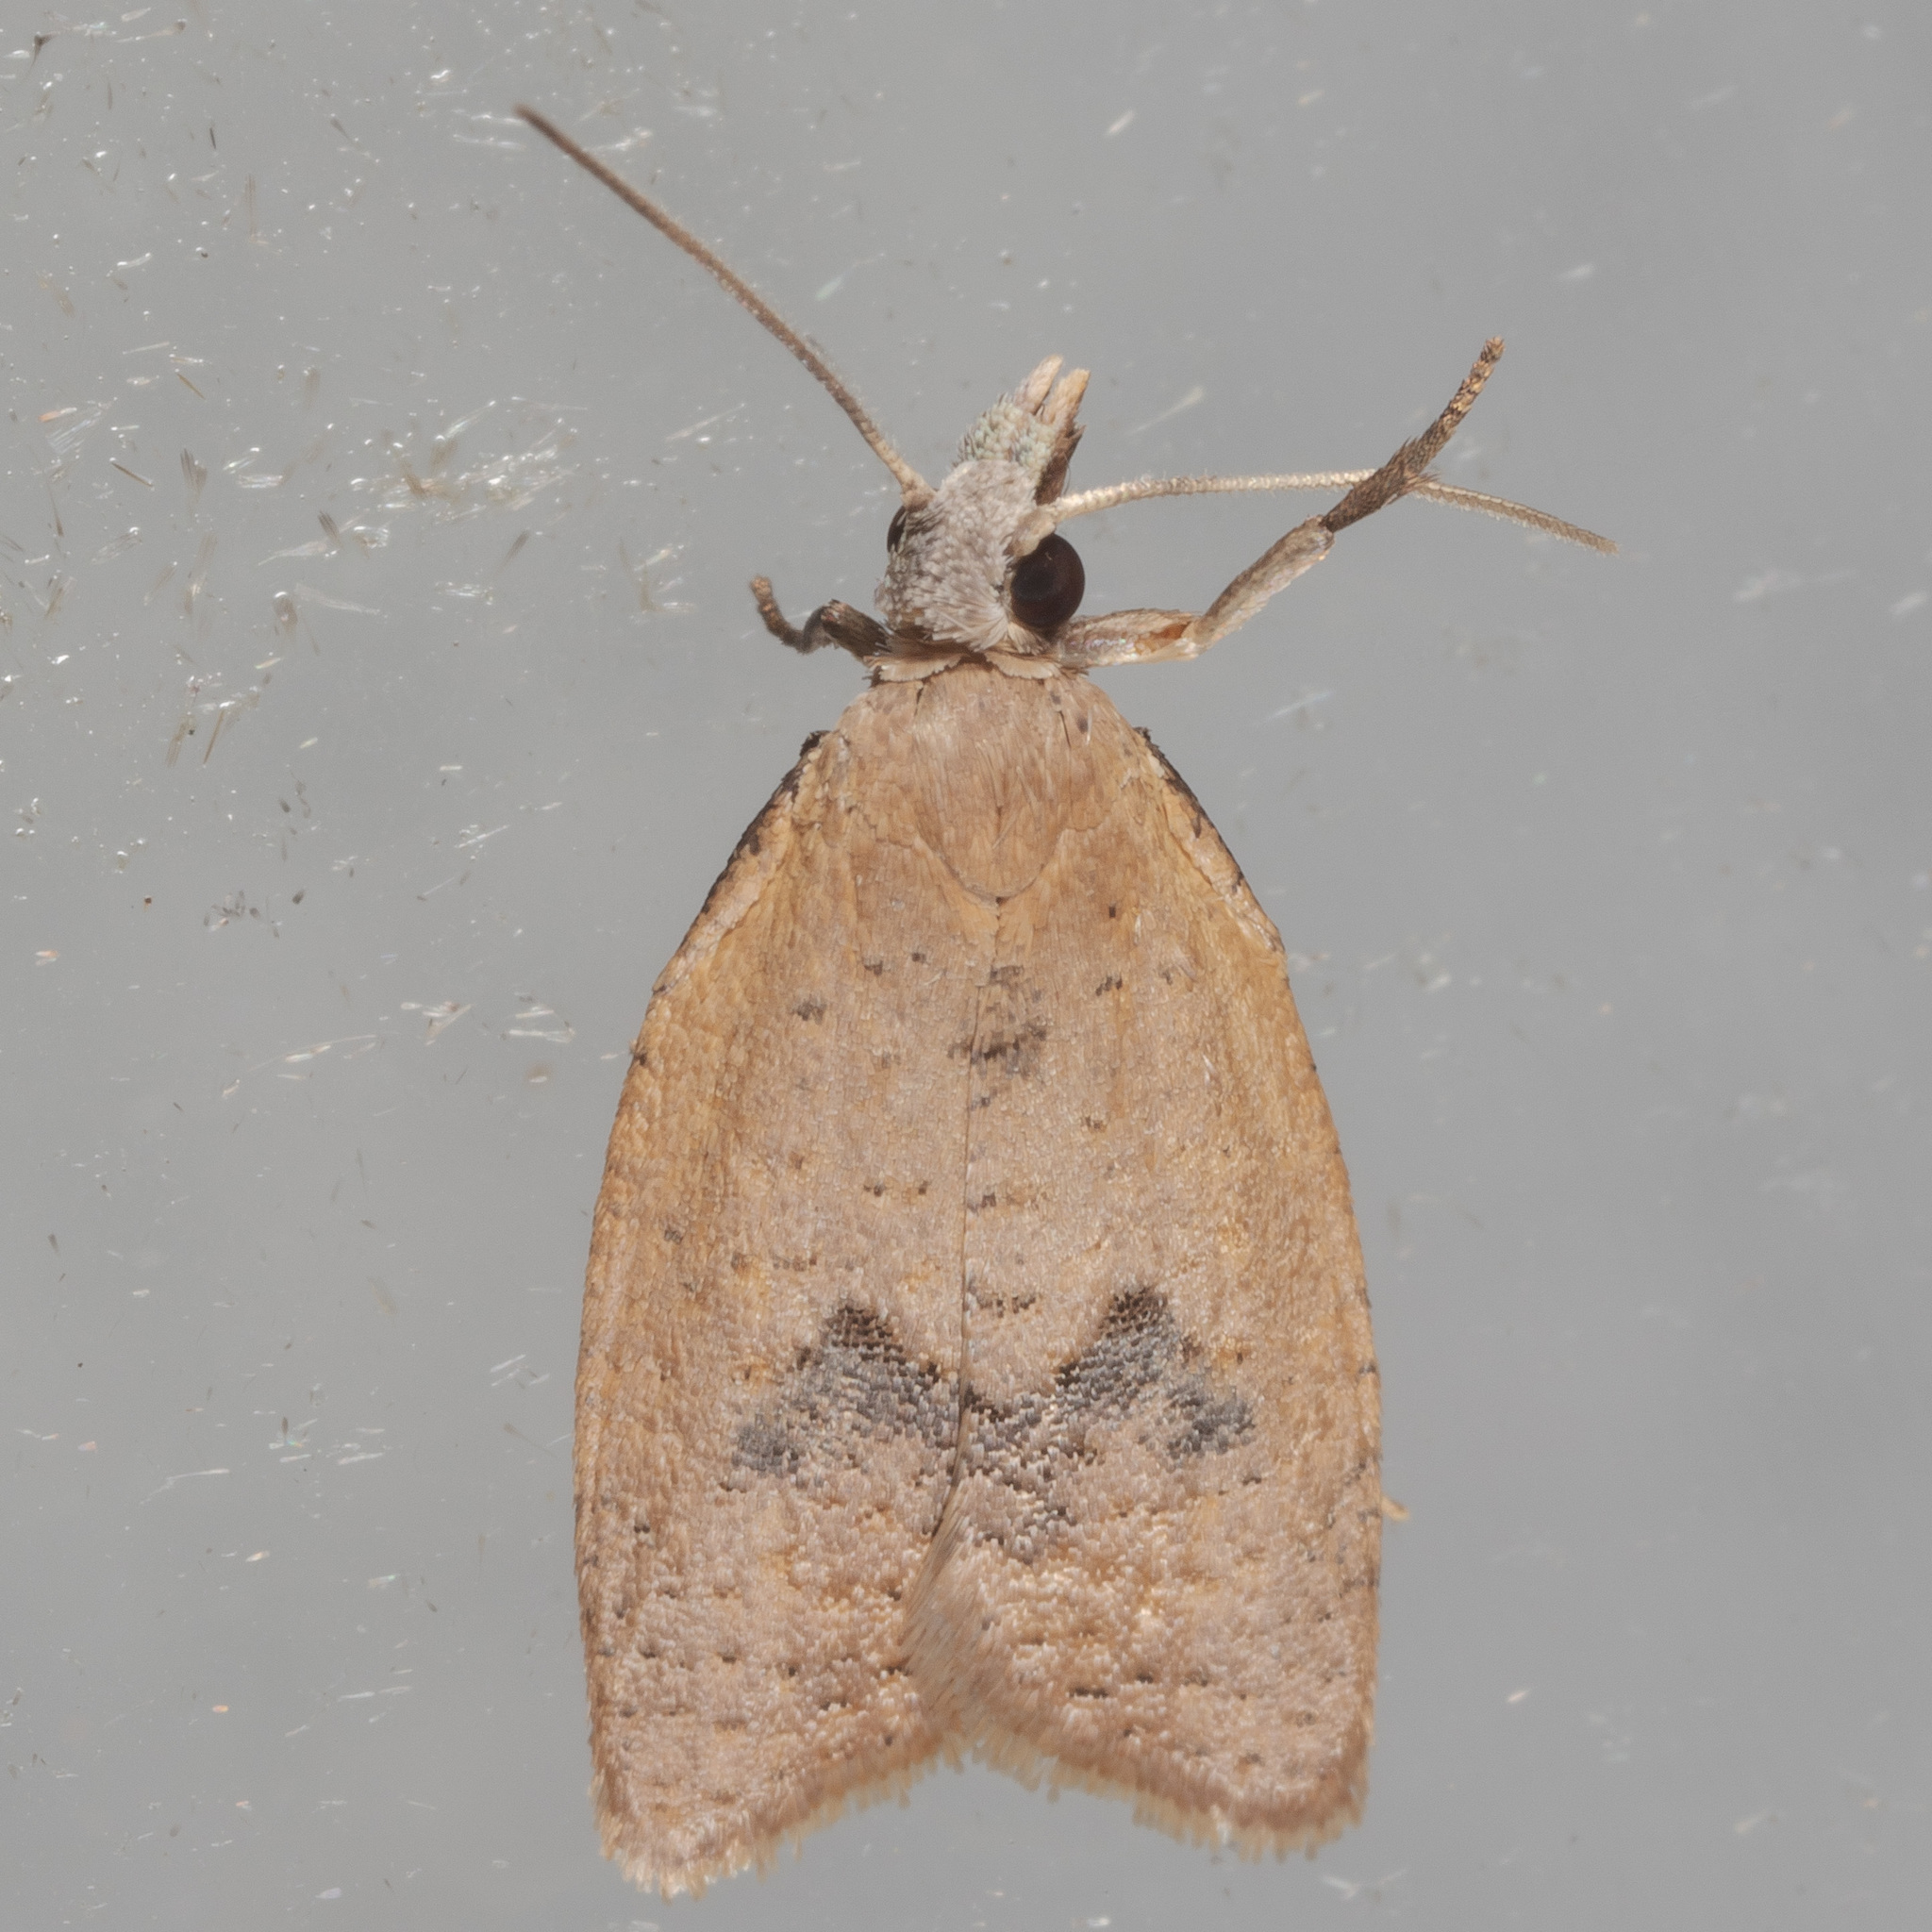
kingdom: Animalia
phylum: Arthropoda
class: Insecta
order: Lepidoptera
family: Tortricidae
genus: Sparganothoides
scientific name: Sparganothoides lentiginosana
